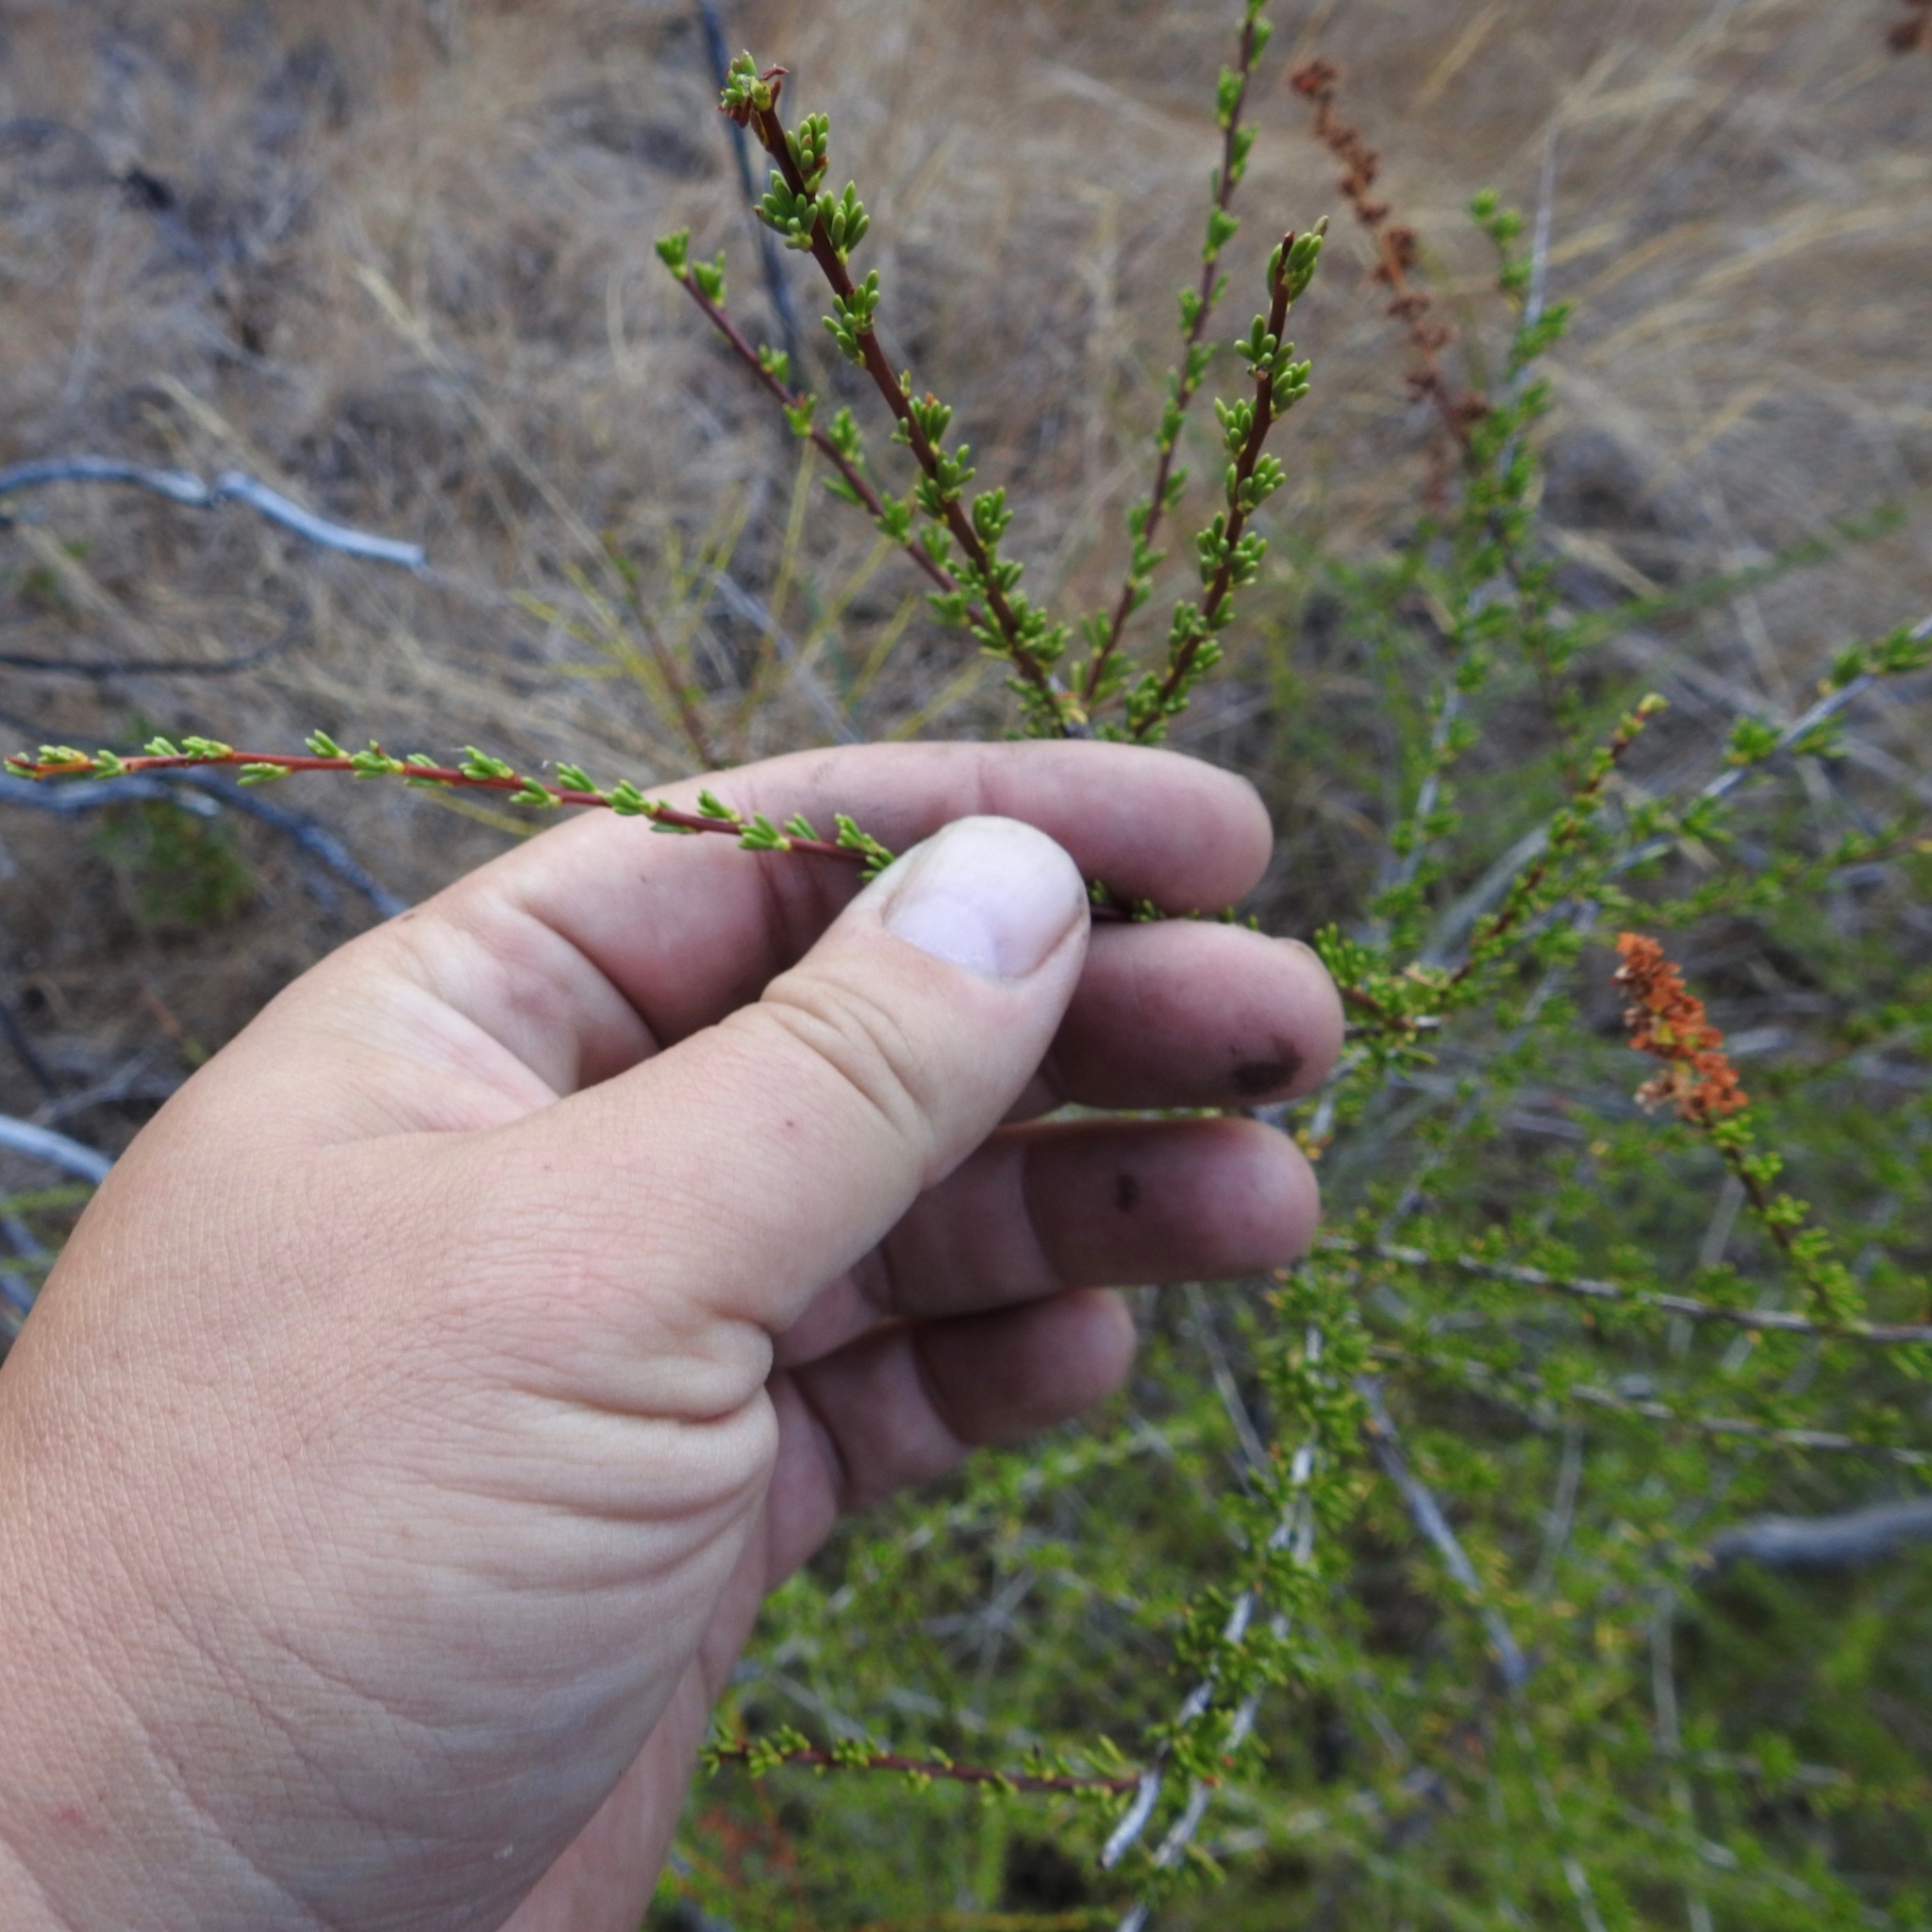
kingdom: Plantae
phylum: Tracheophyta
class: Magnoliopsida
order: Rosales
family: Rosaceae
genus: Adenostoma
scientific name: Adenostoma fasciculatum
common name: Chamise
